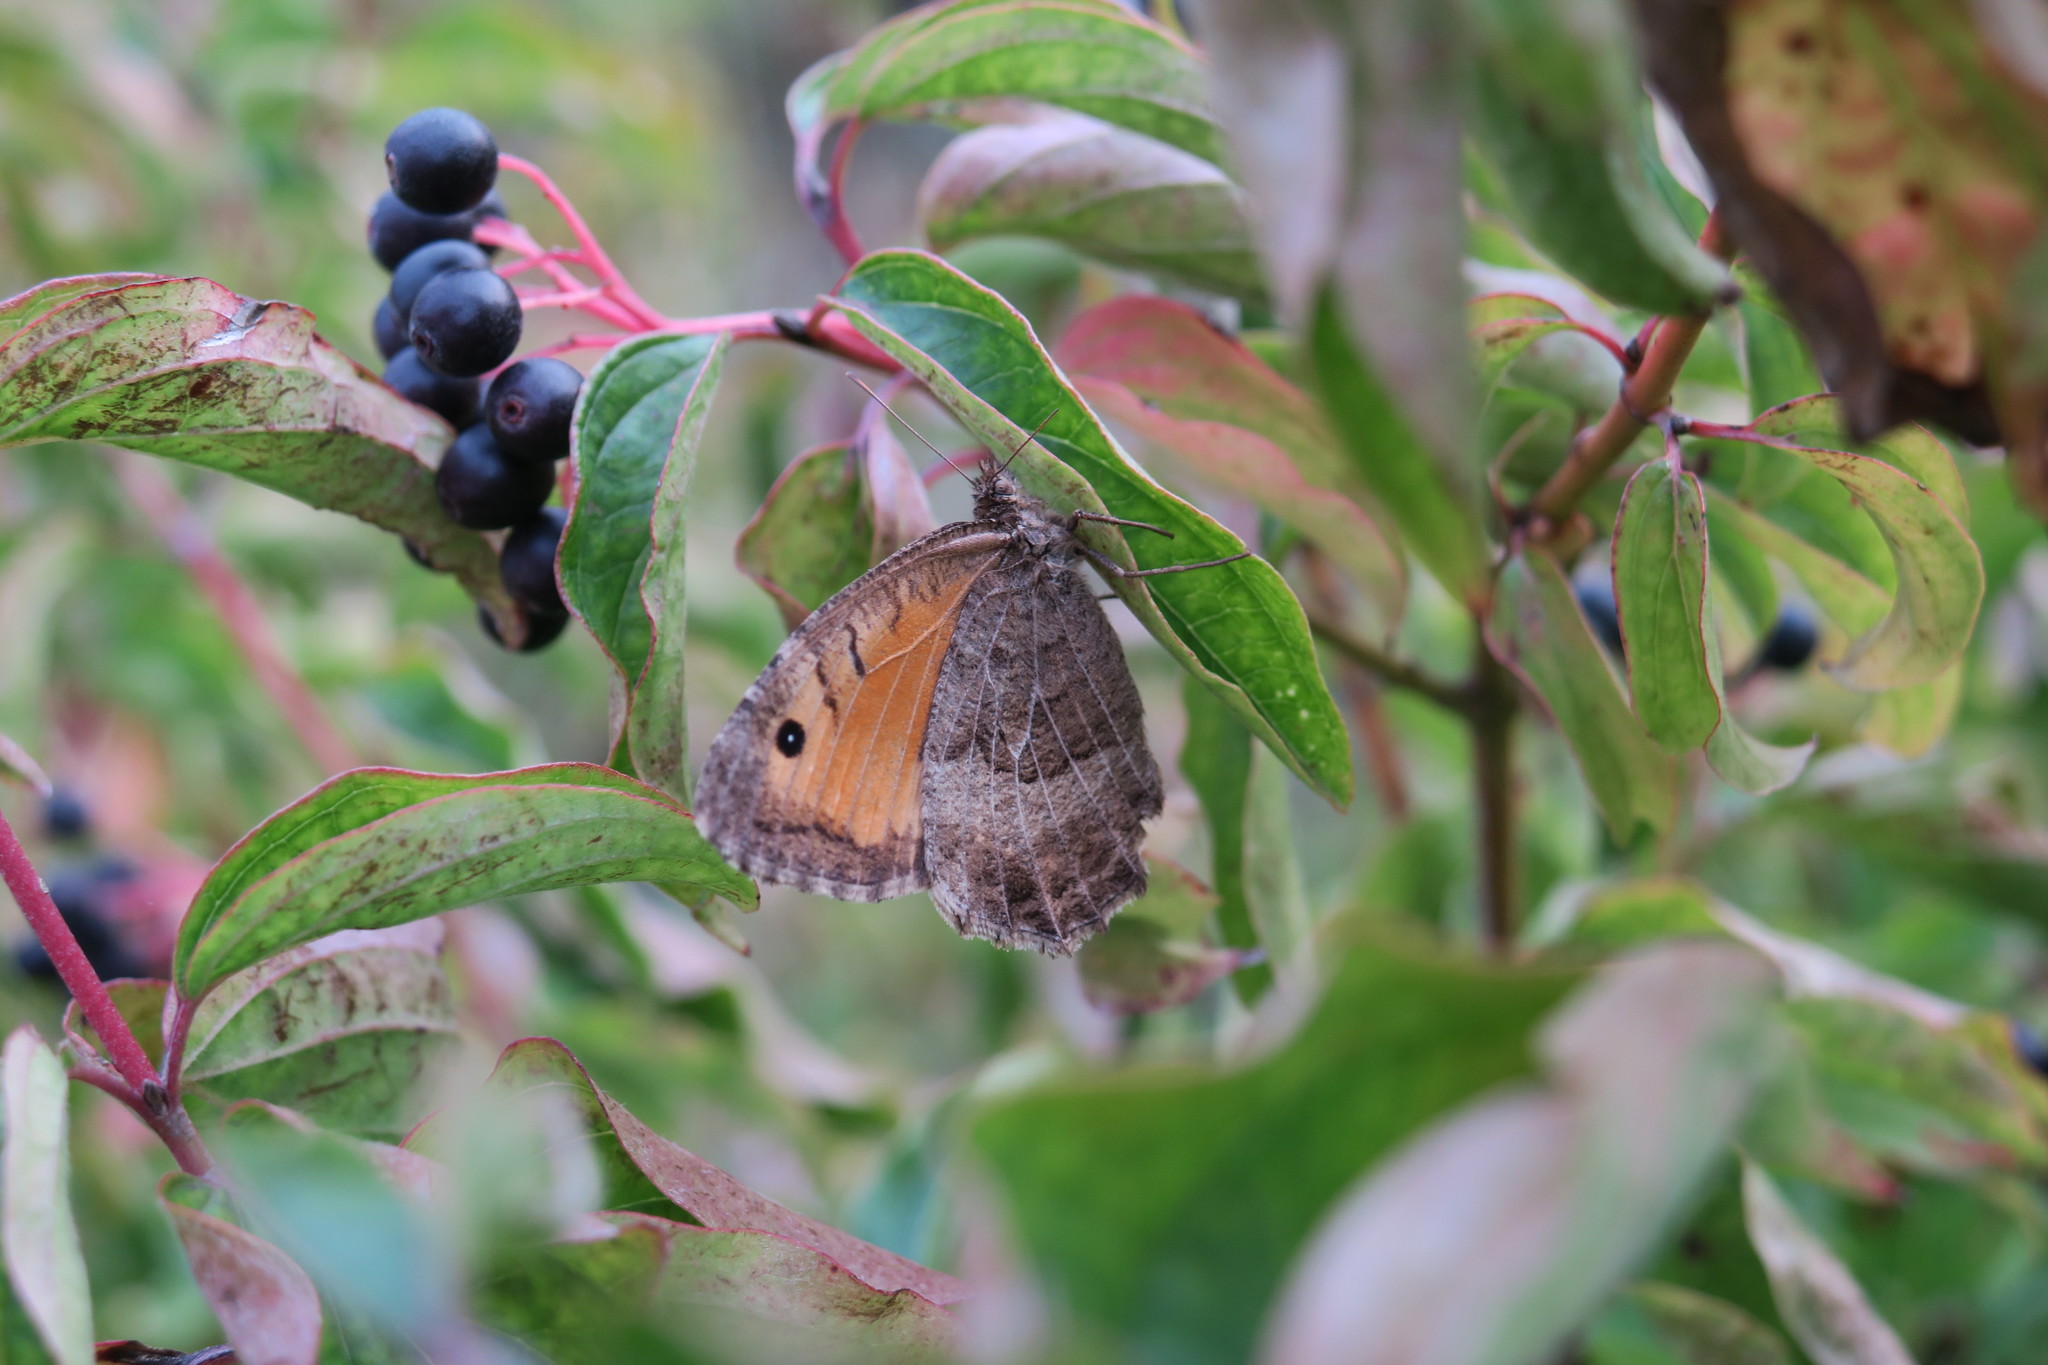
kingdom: Animalia
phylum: Arthropoda
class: Insecta
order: Lepidoptera
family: Nymphalidae
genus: Arethusana
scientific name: Arethusana arethusa
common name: False grayling
